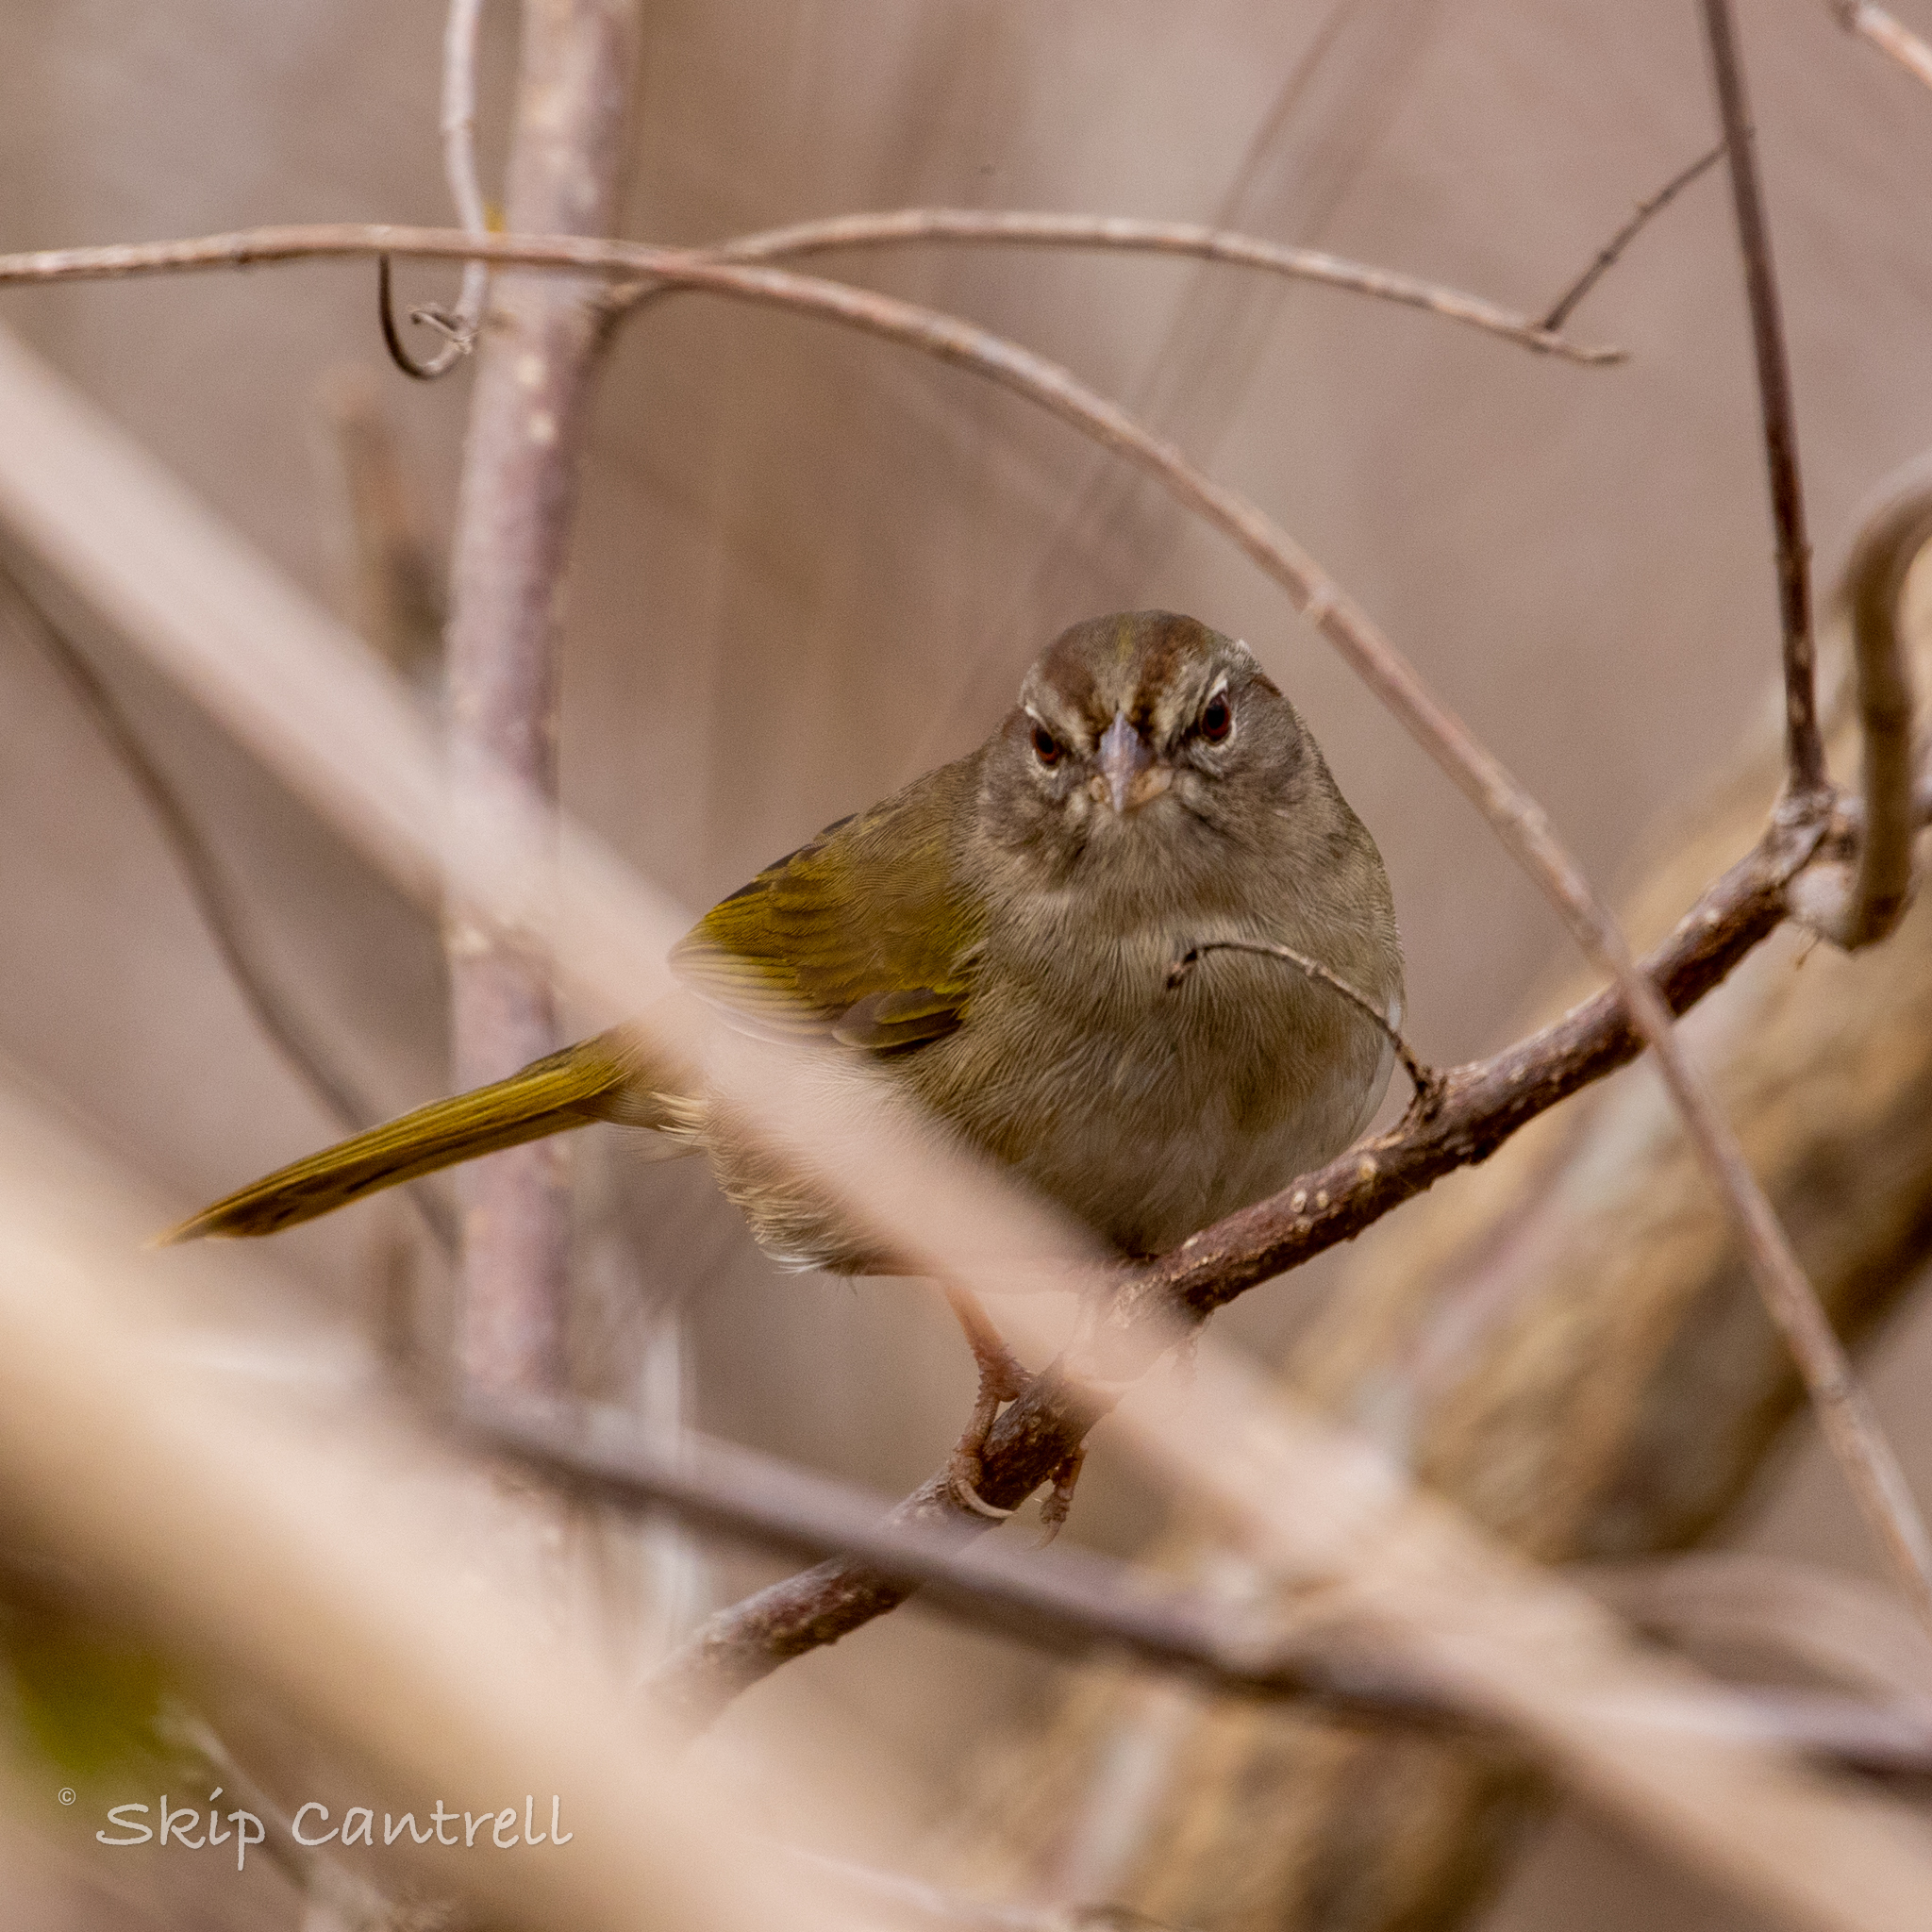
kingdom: Animalia
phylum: Chordata
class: Aves
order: Passeriformes
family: Passerellidae
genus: Arremonops
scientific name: Arremonops rufivirgatus
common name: Olive sparrow
